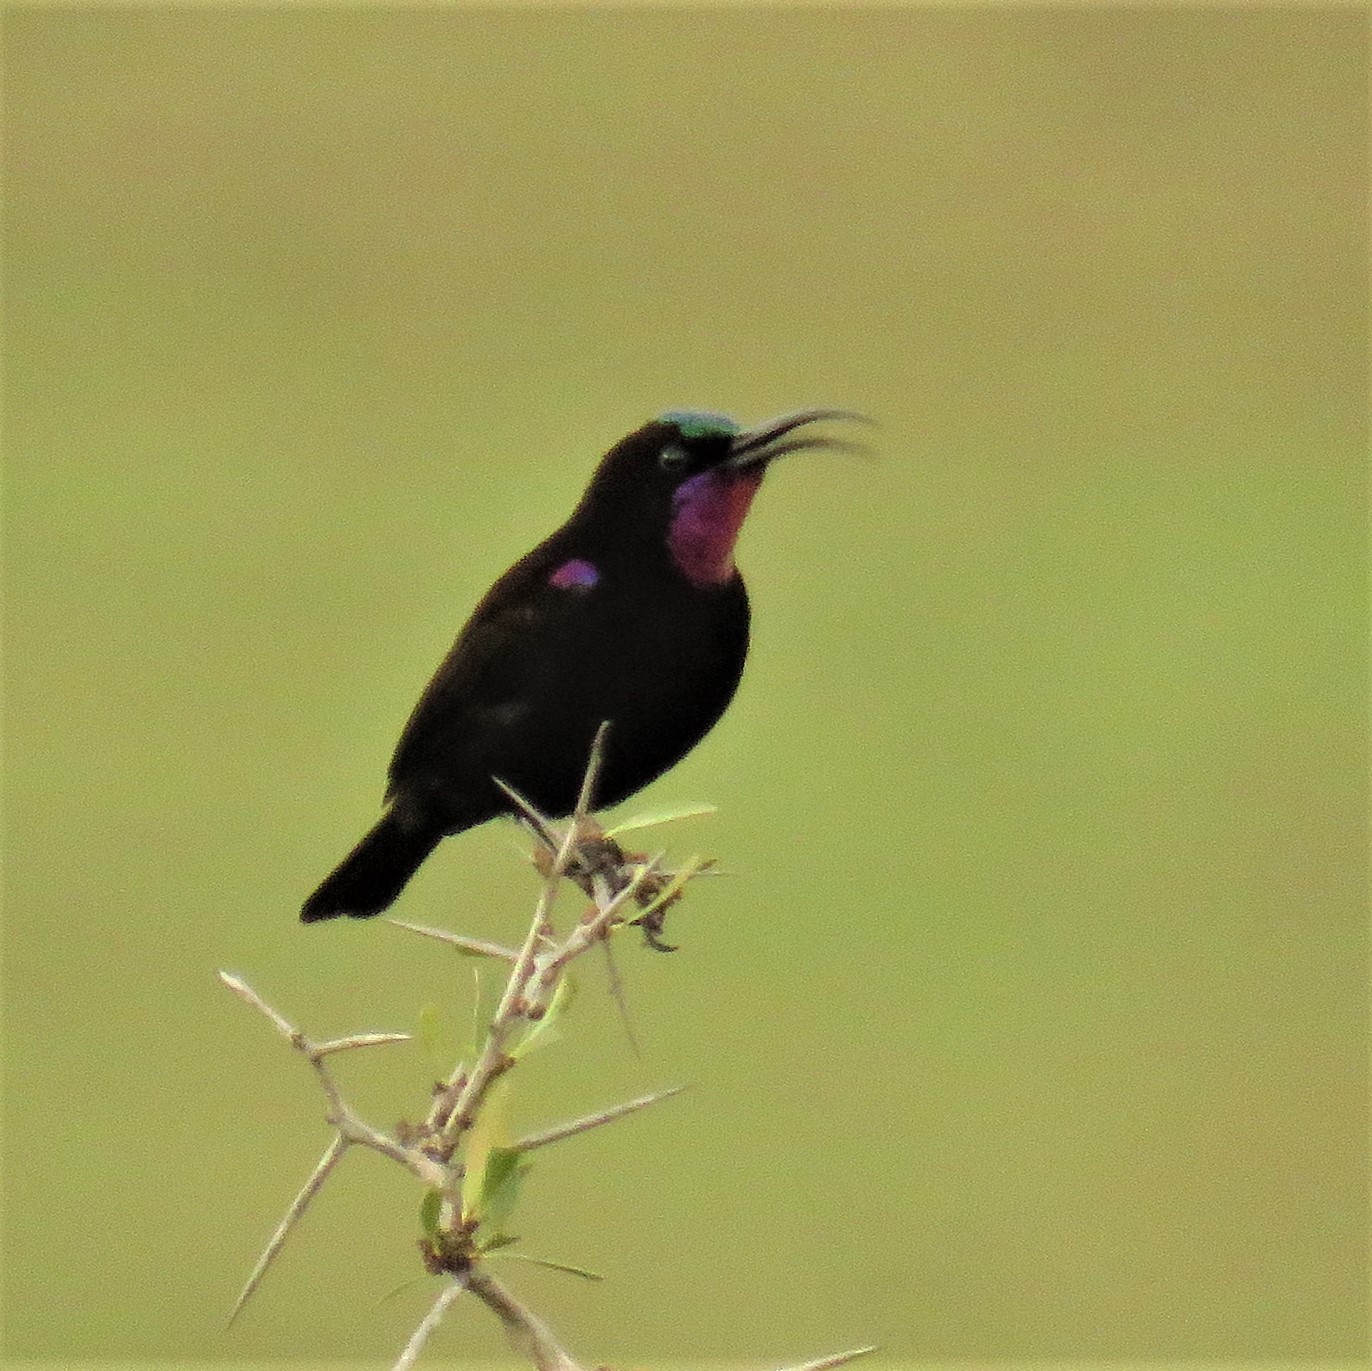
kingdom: Animalia
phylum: Chordata
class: Aves
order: Passeriformes
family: Nectariniidae
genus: Chalcomitra
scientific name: Chalcomitra amethystina
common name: Amethyst sunbird
